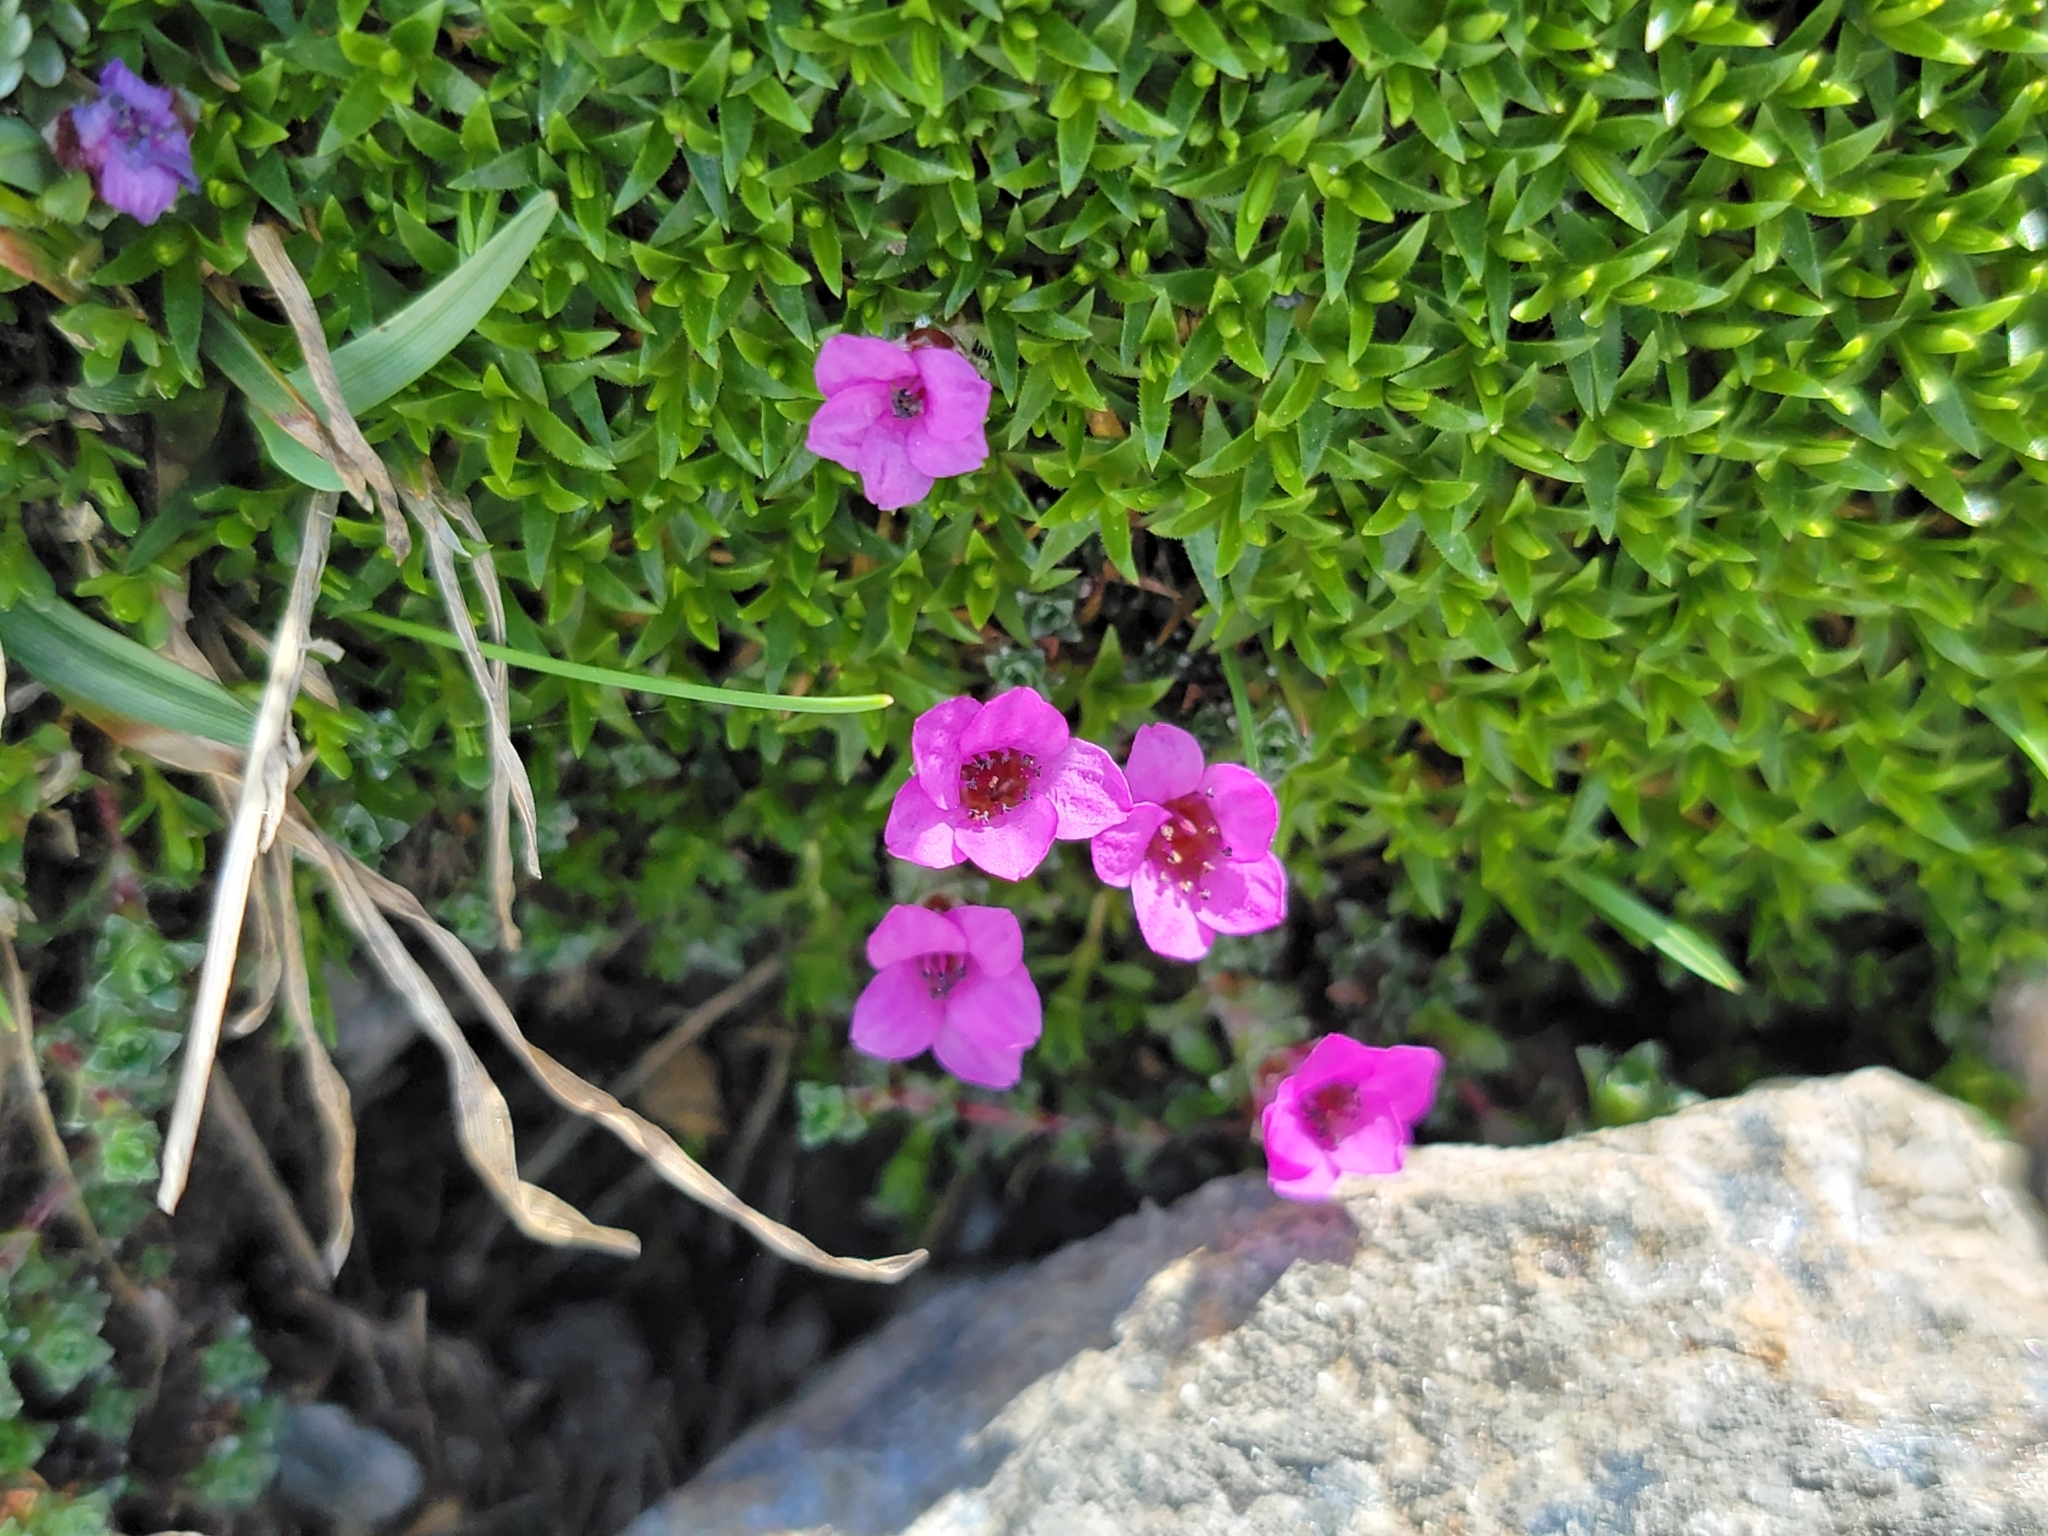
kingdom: Plantae
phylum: Tracheophyta
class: Magnoliopsida
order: Saxifragales
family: Saxifragaceae
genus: Saxifraga
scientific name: Saxifraga oppositifolia
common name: Purple saxifrage
